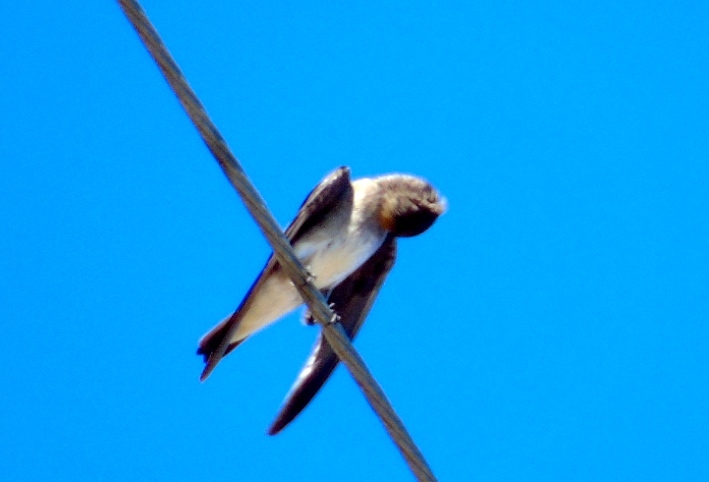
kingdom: Animalia
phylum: Chordata
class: Aves
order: Passeriformes
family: Hirundinidae
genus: Stelgidopteryx
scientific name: Stelgidopteryx serripennis
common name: Northern rough-winged swallow
